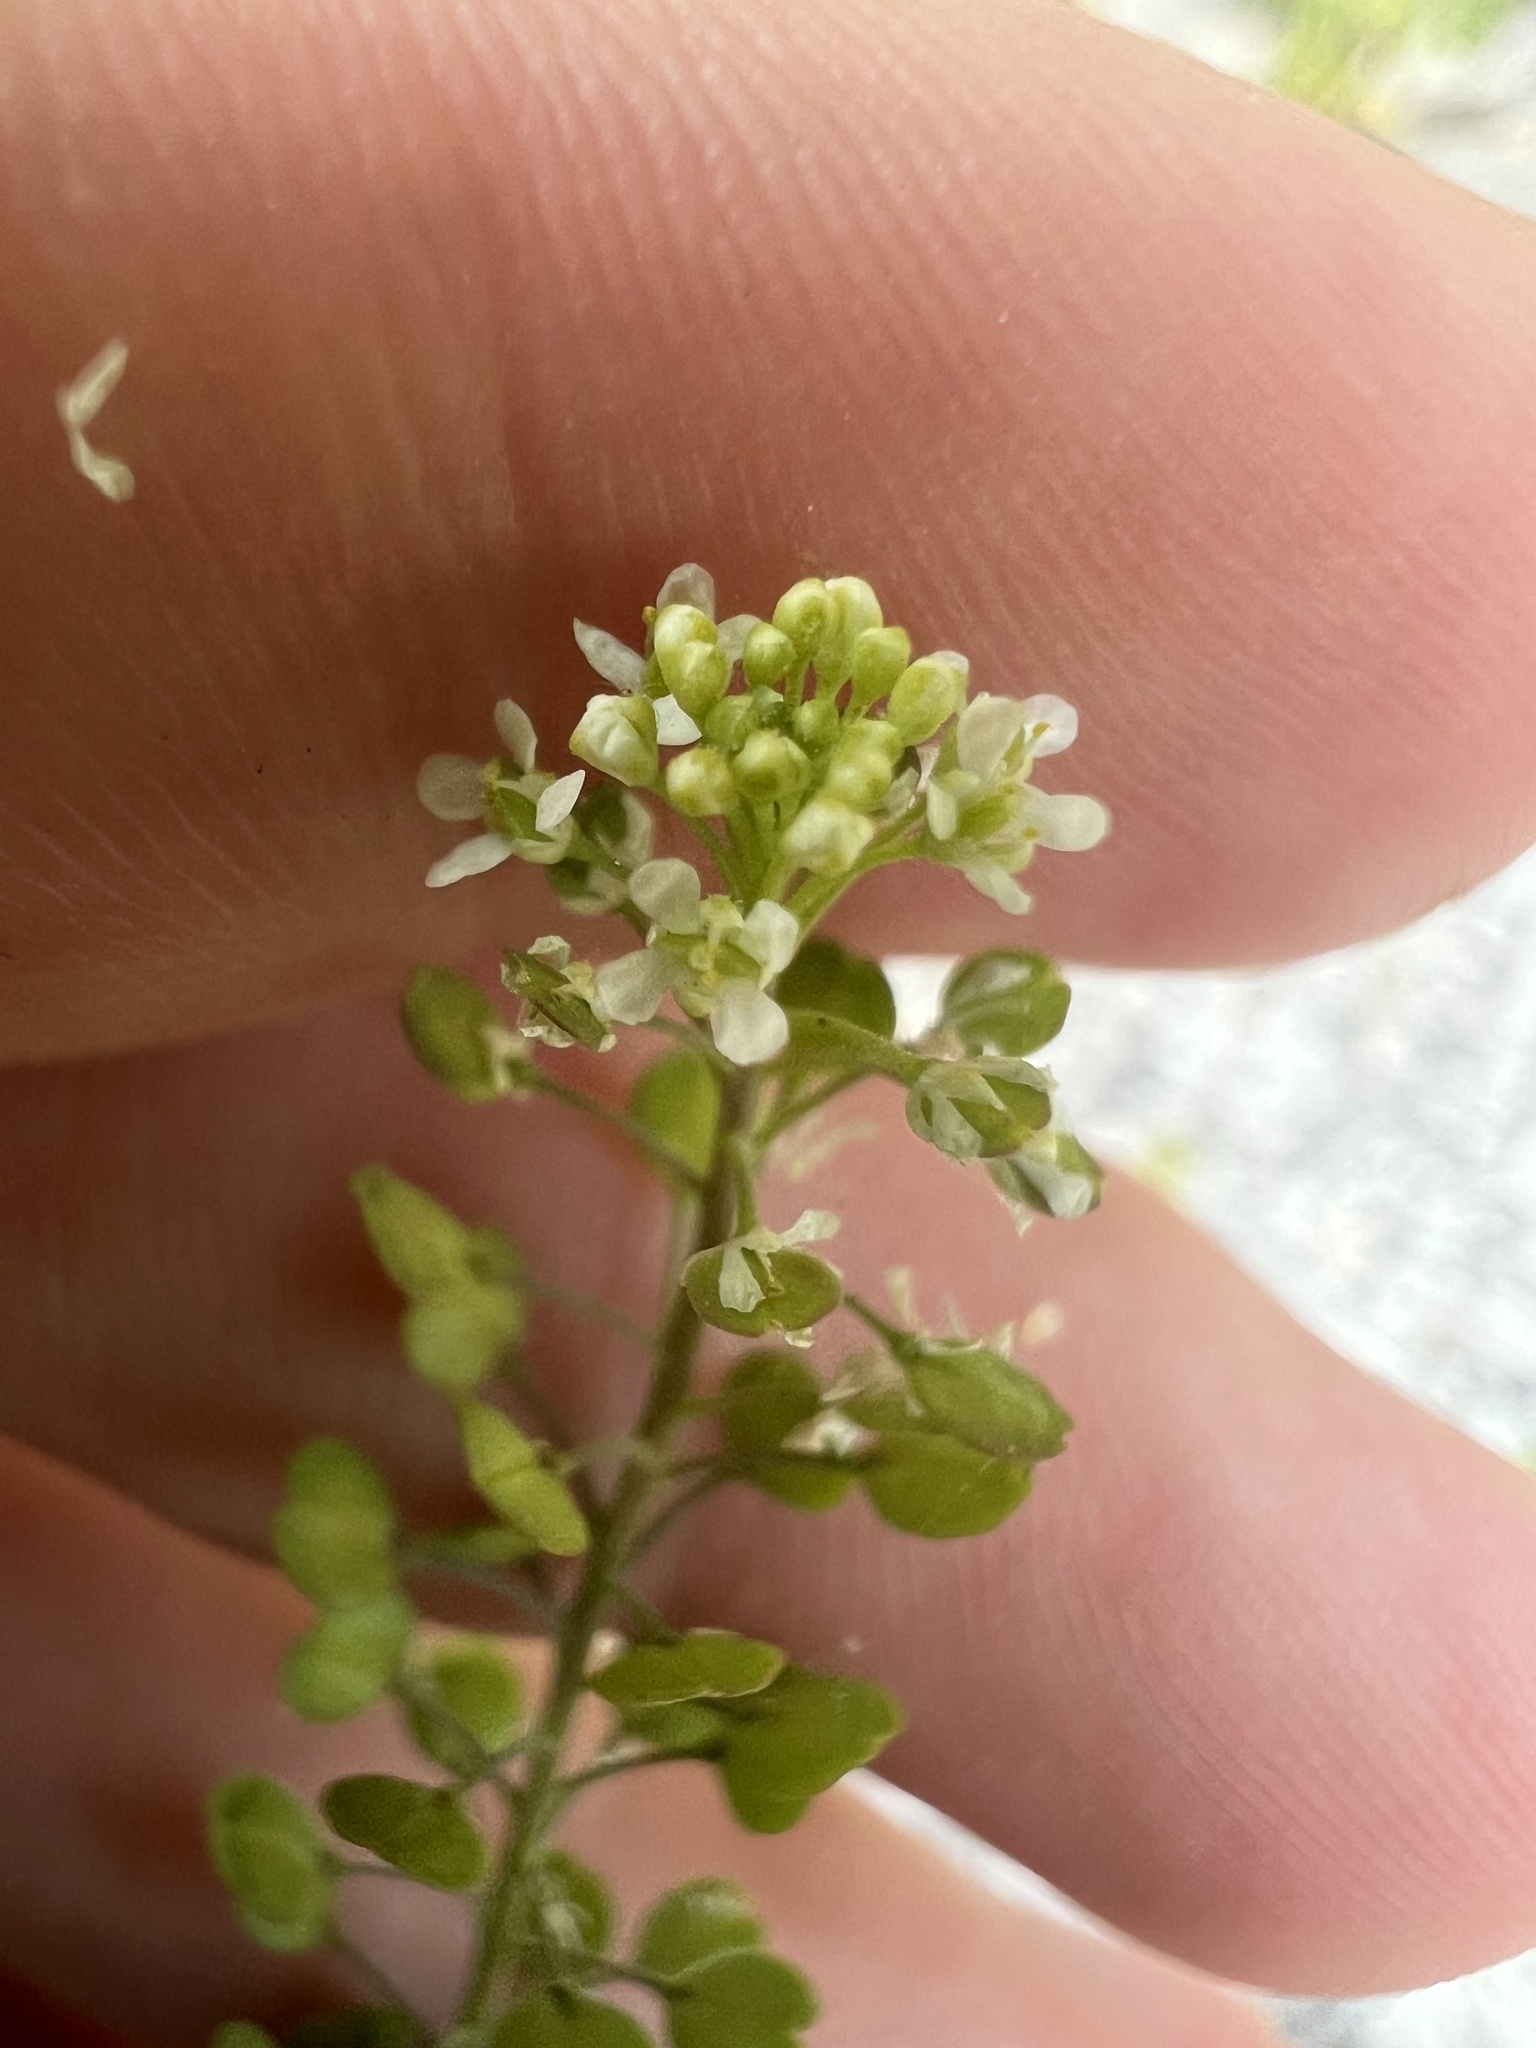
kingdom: Plantae
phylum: Tracheophyta
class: Magnoliopsida
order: Brassicales
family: Brassicaceae
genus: Lepidium
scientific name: Lepidium virginicum
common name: Least pepperwort
